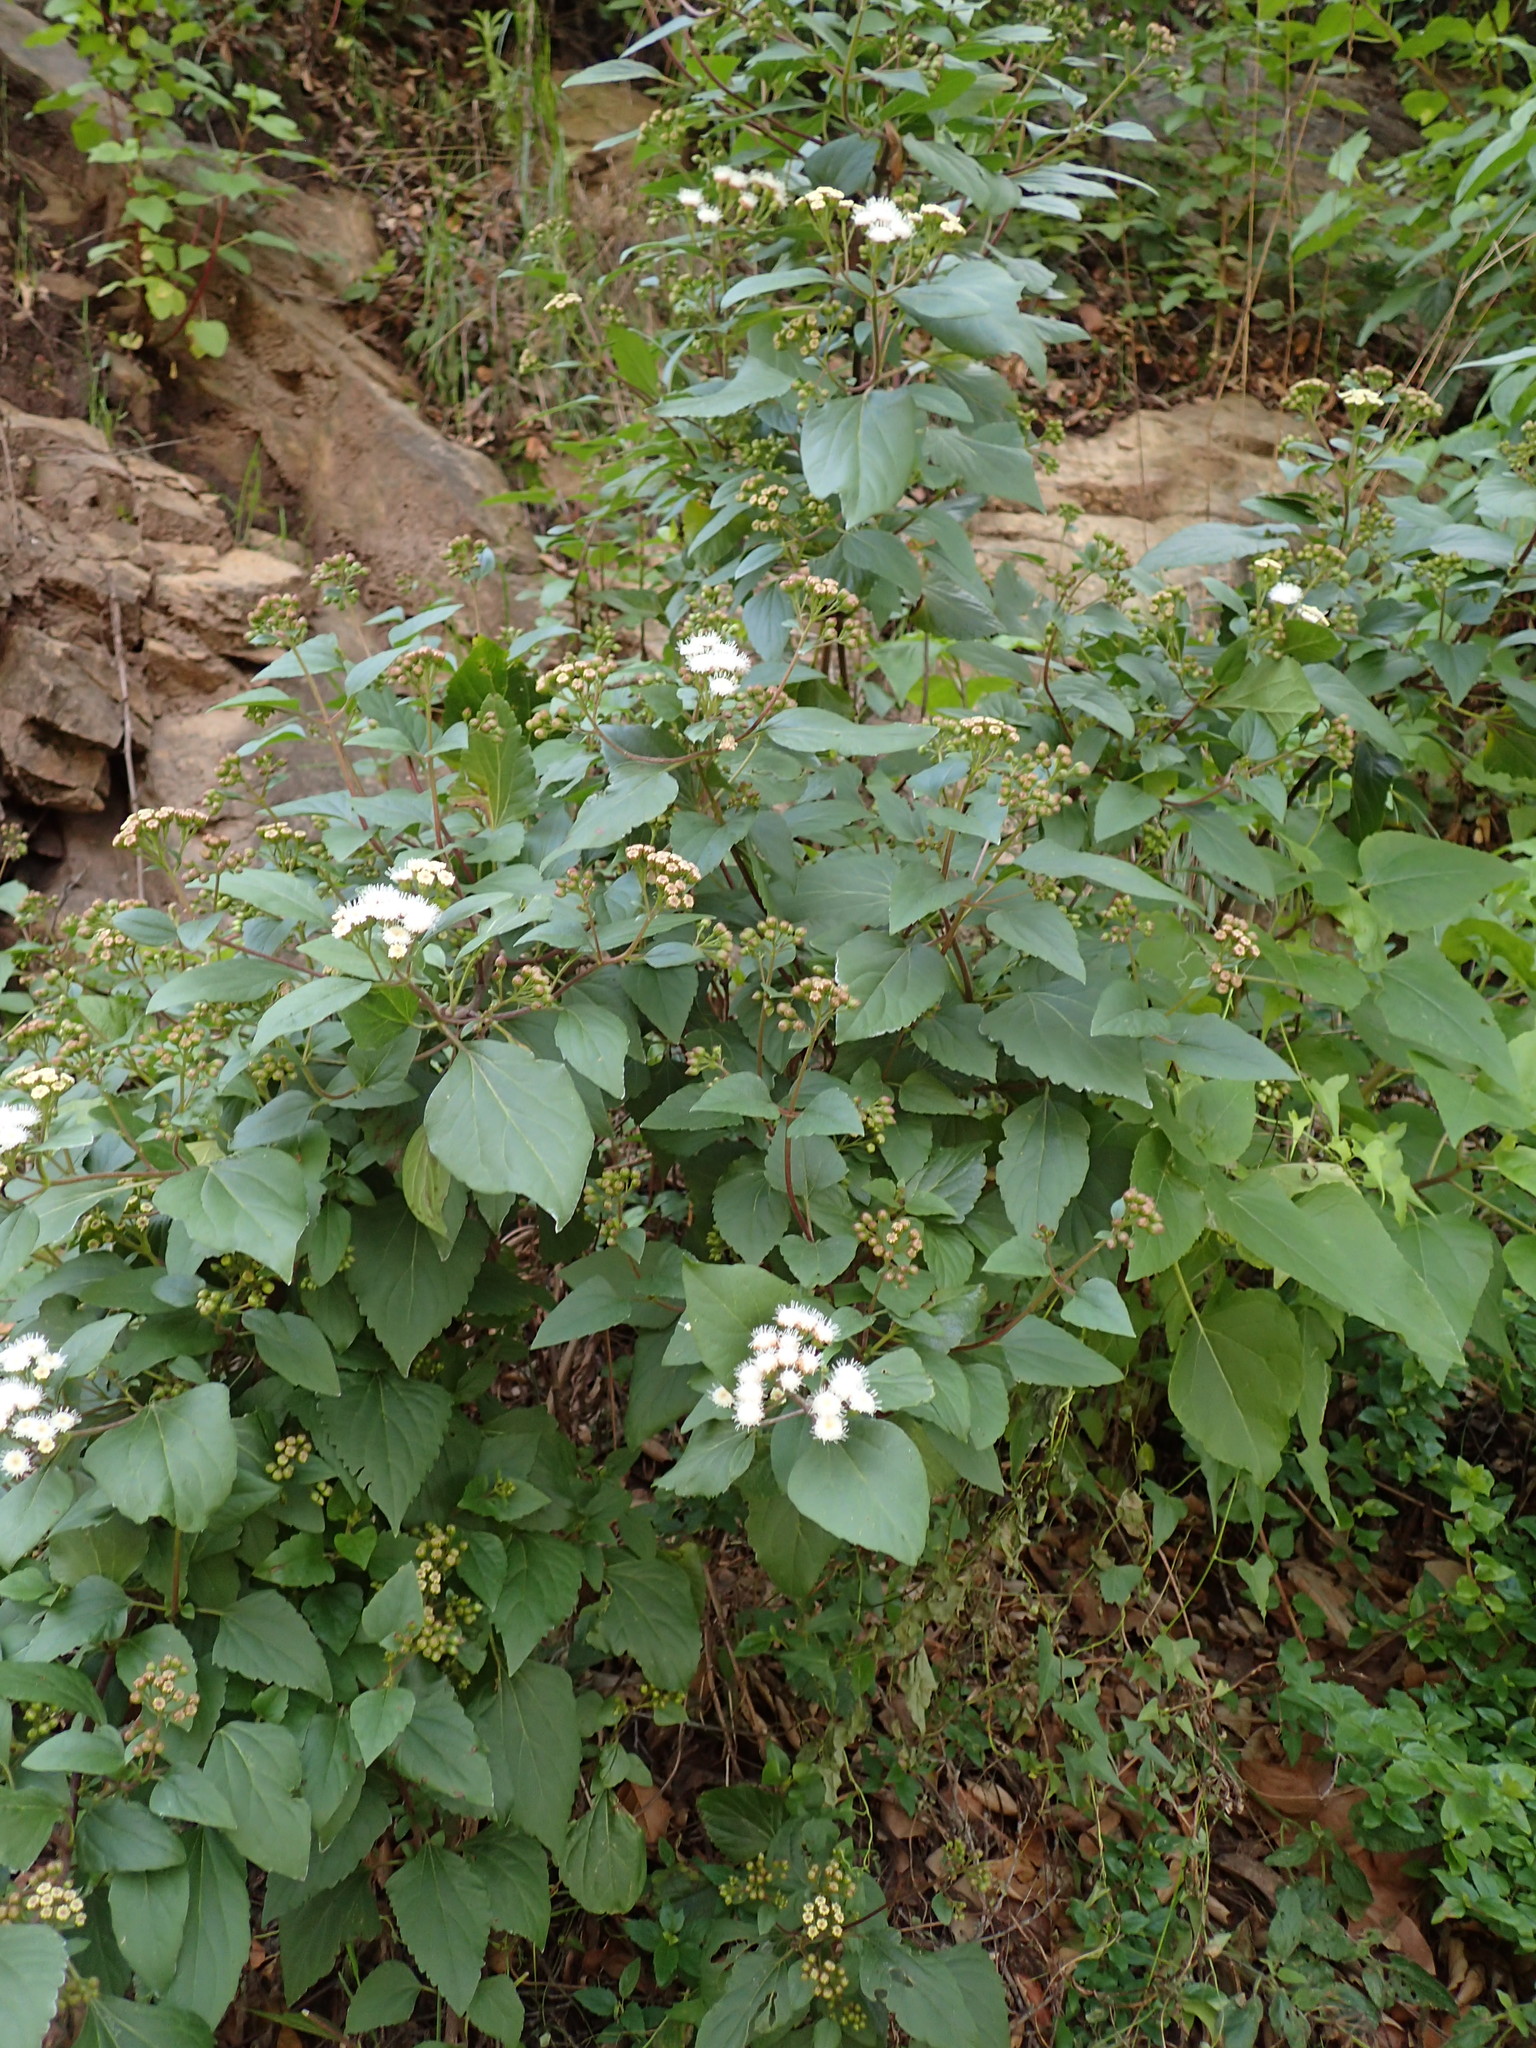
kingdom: Plantae
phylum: Tracheophyta
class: Magnoliopsida
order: Asterales
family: Asteraceae
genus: Ageratina
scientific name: Ageratina adenophora
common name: Sticky snakeroot
